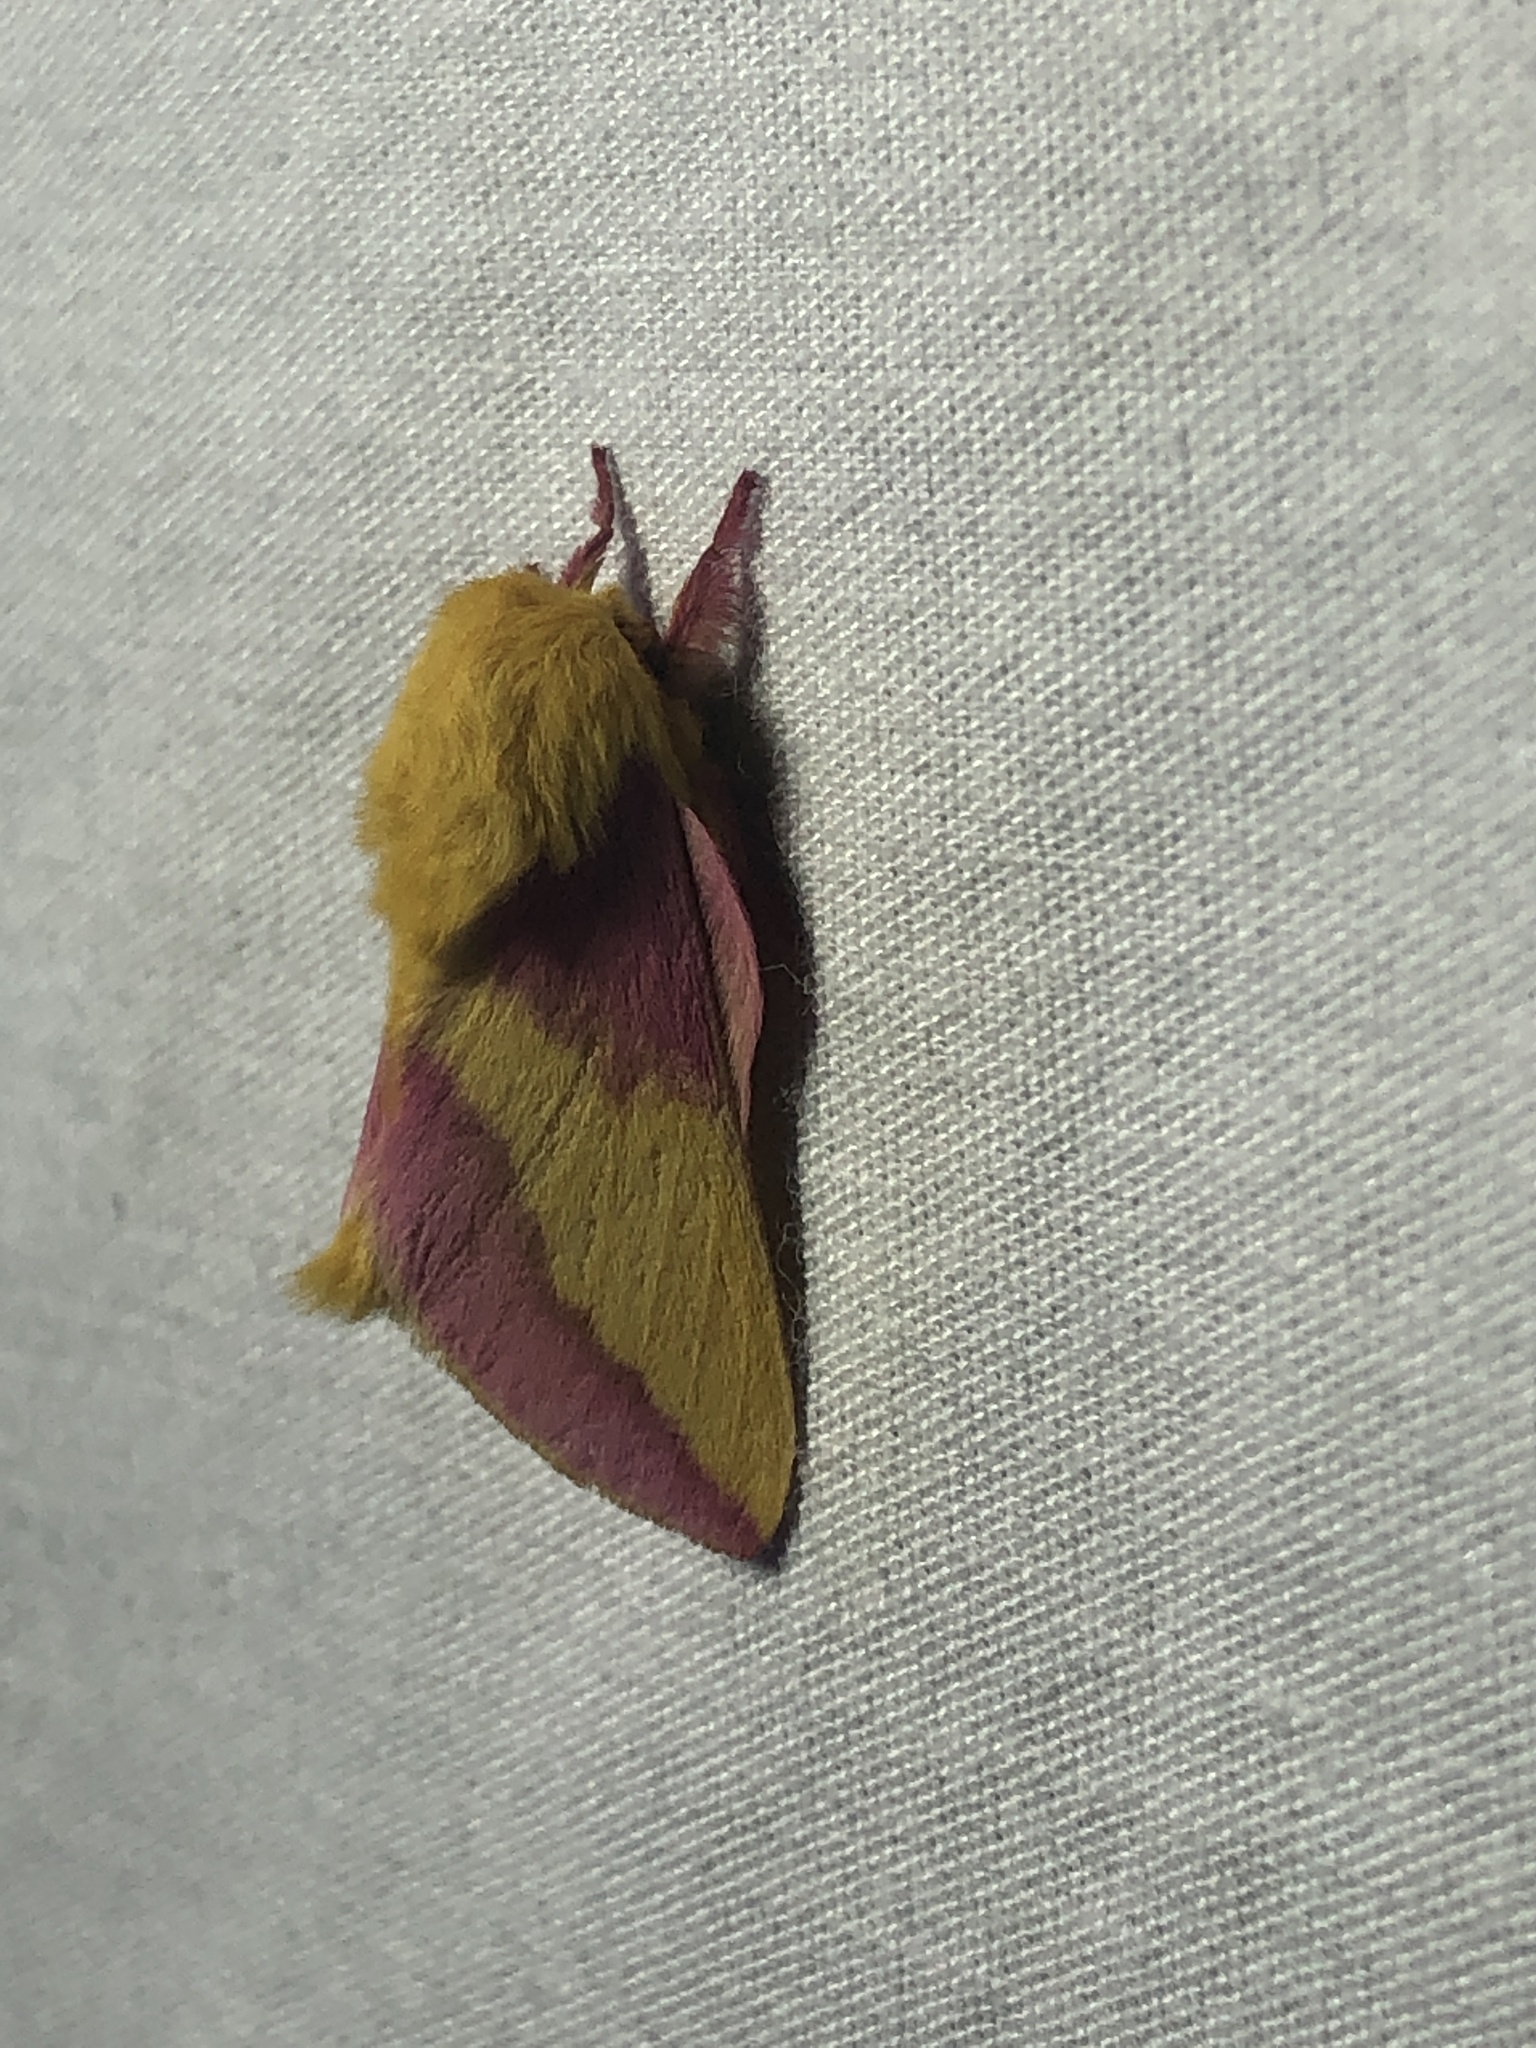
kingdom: Animalia
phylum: Arthropoda
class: Insecta
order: Lepidoptera
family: Saturniidae
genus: Dryocampa
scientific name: Dryocampa rubicunda
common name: Rosy maple moth
